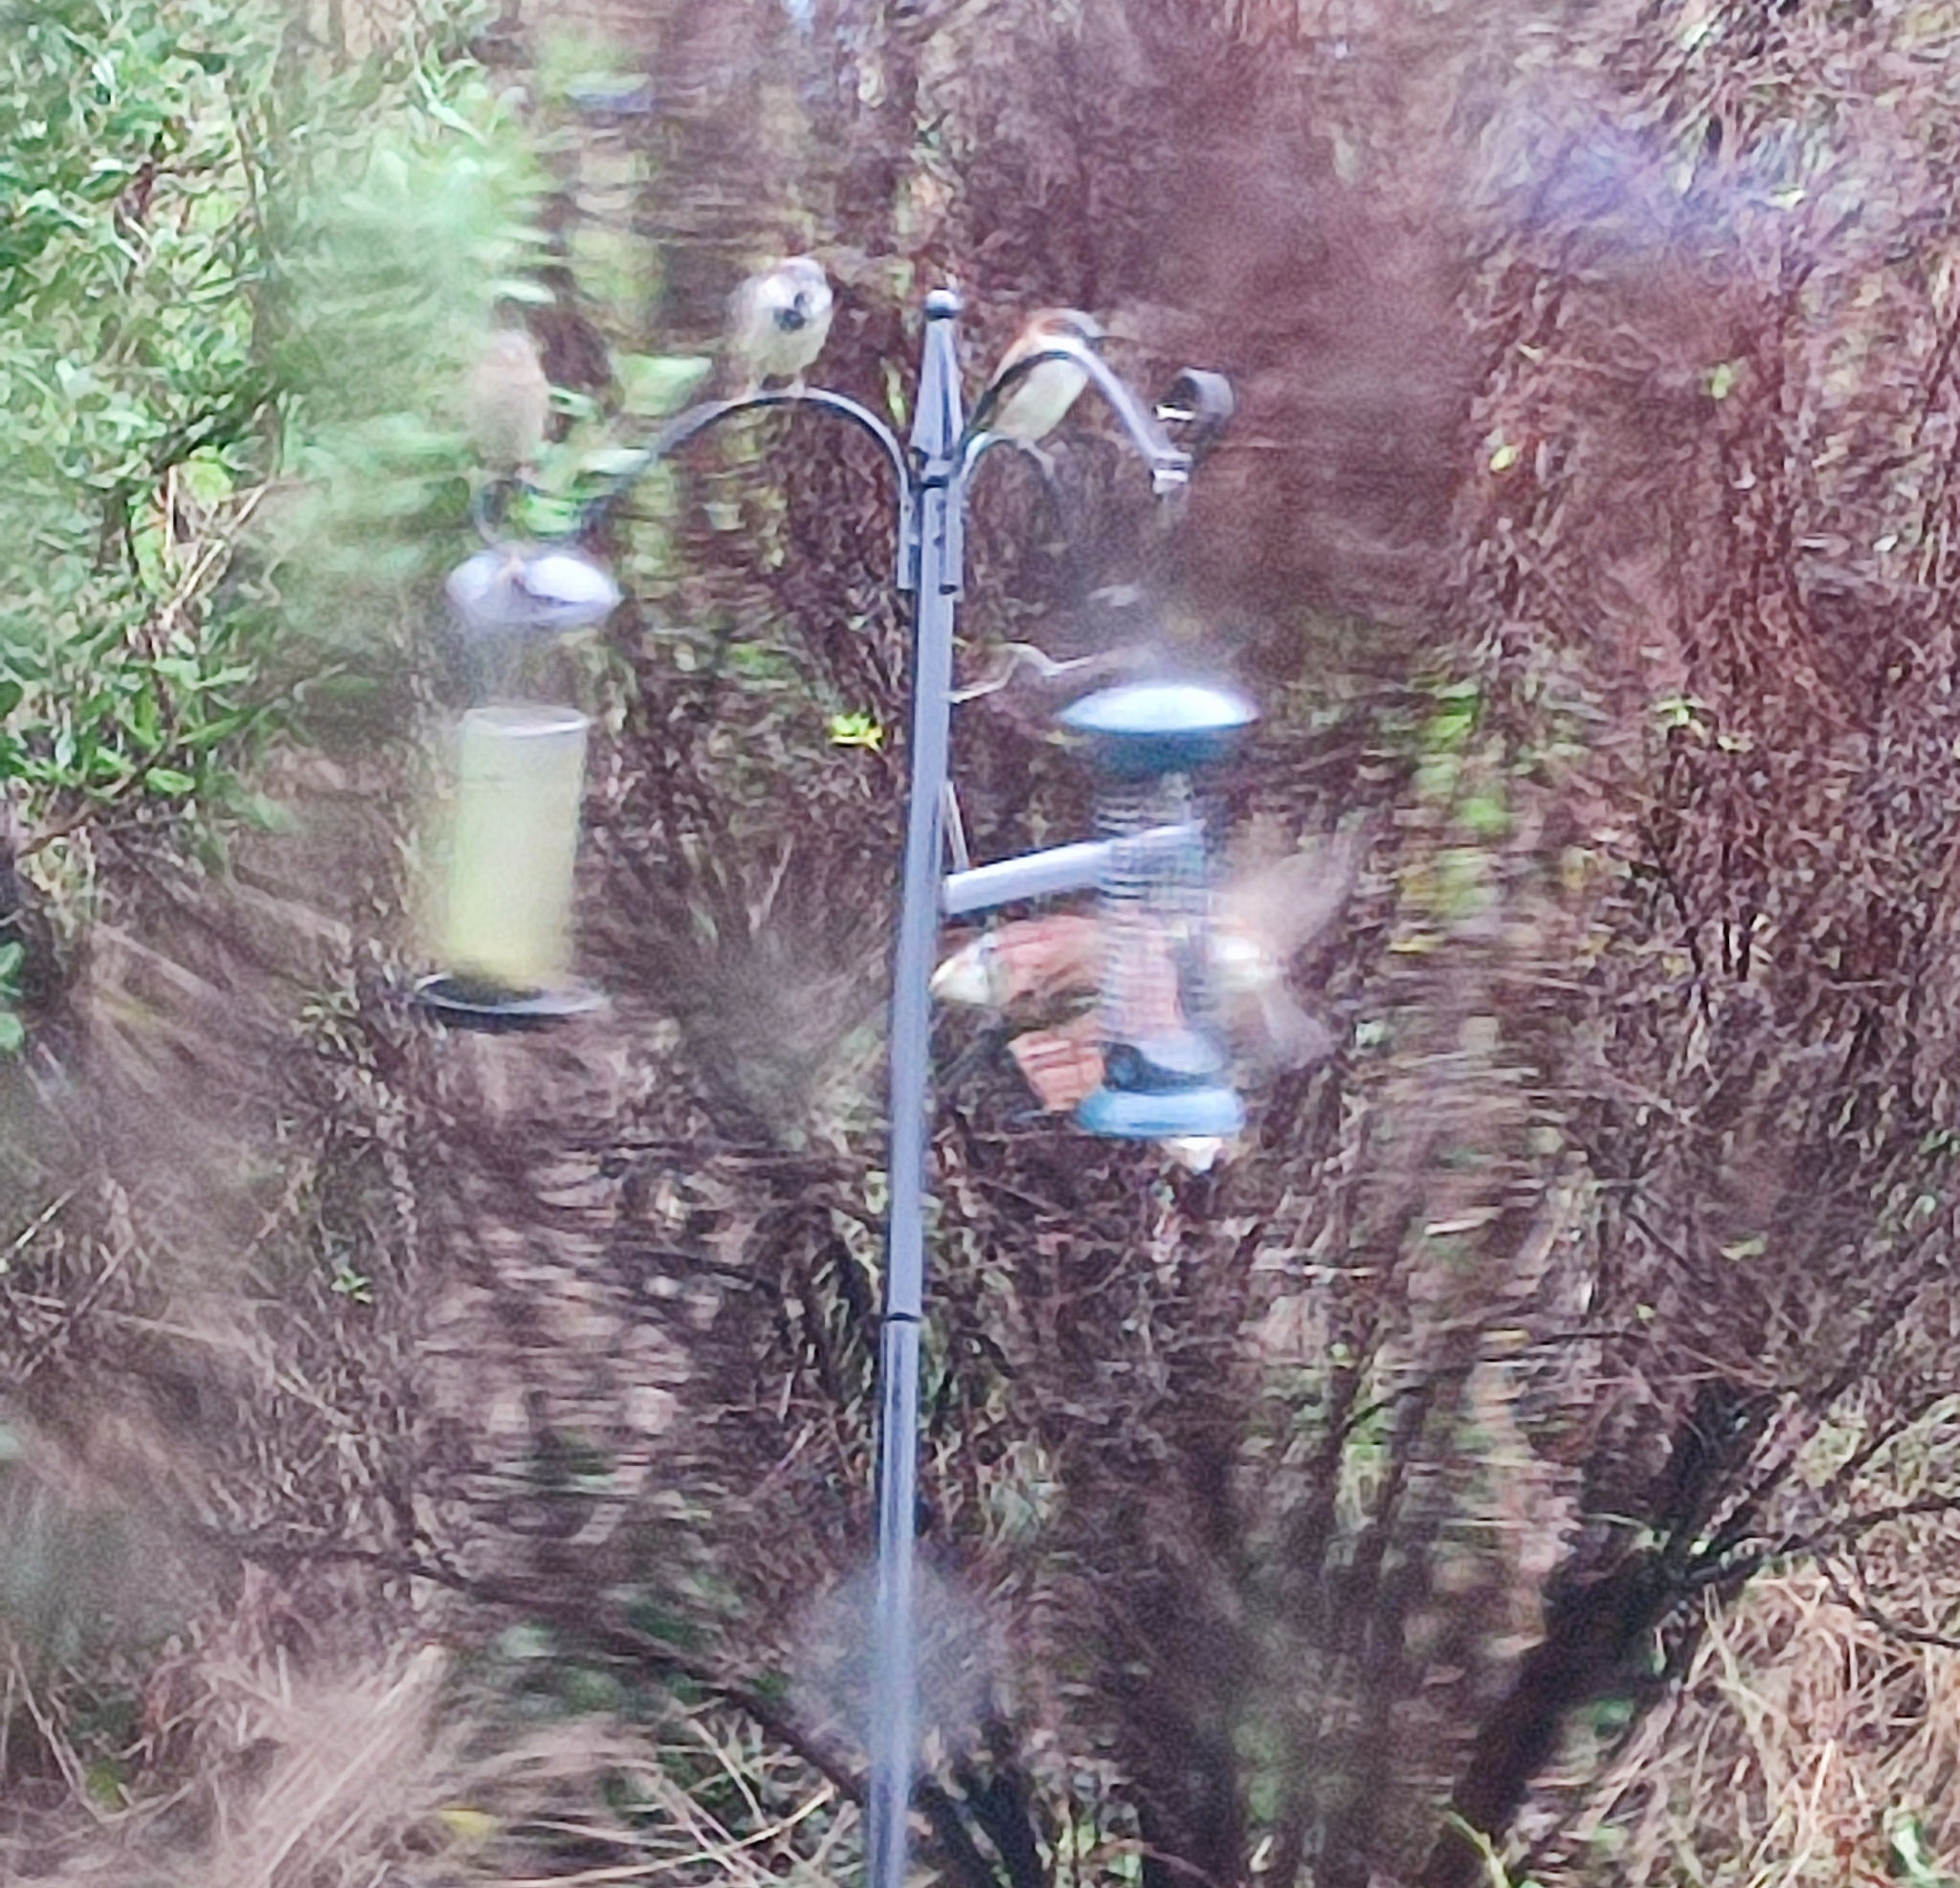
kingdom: Animalia
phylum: Chordata
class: Aves
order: Passeriformes
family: Passeridae
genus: Passer
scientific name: Passer domesticus
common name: House sparrow
